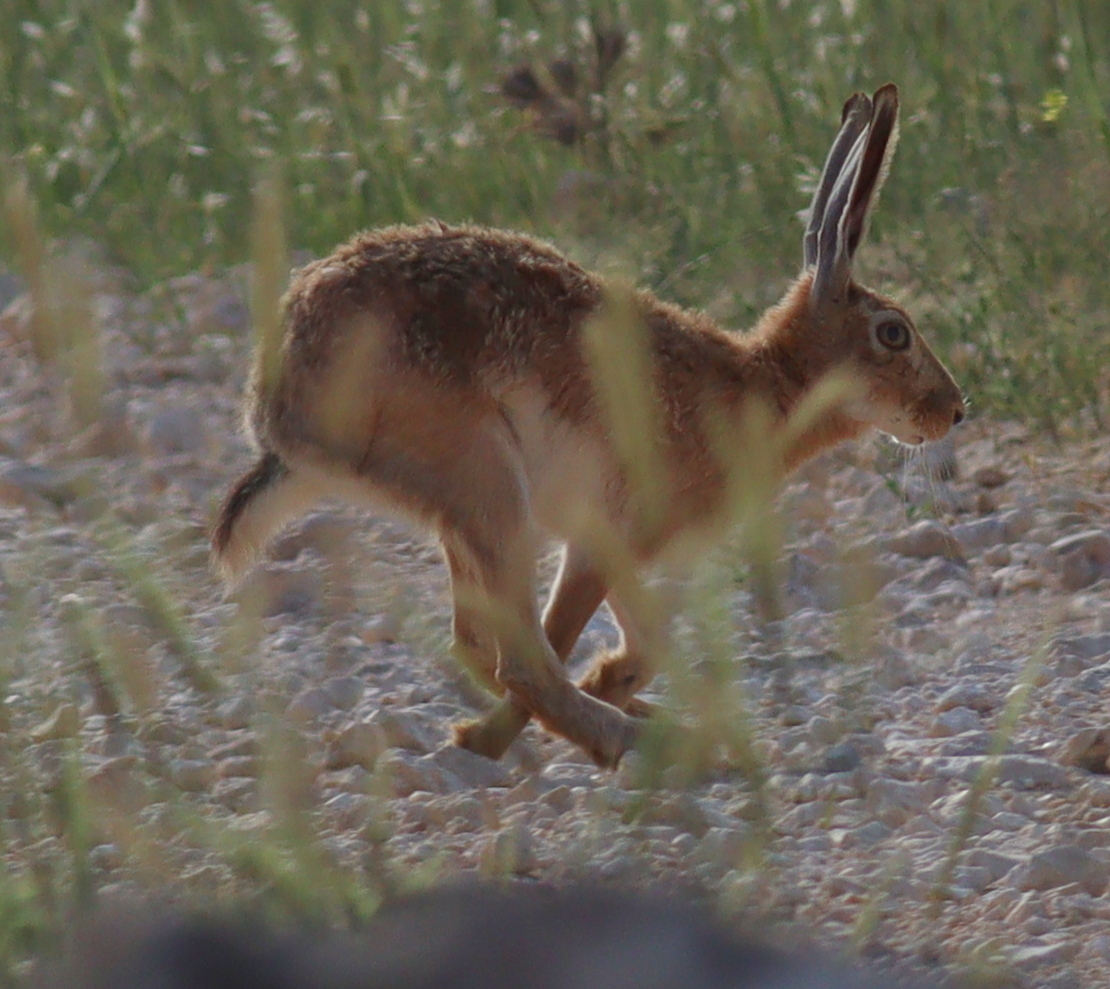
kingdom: Animalia
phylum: Chordata
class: Mammalia
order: Lagomorpha
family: Leporidae
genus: Lepus
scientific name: Lepus europaeus
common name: European hare
